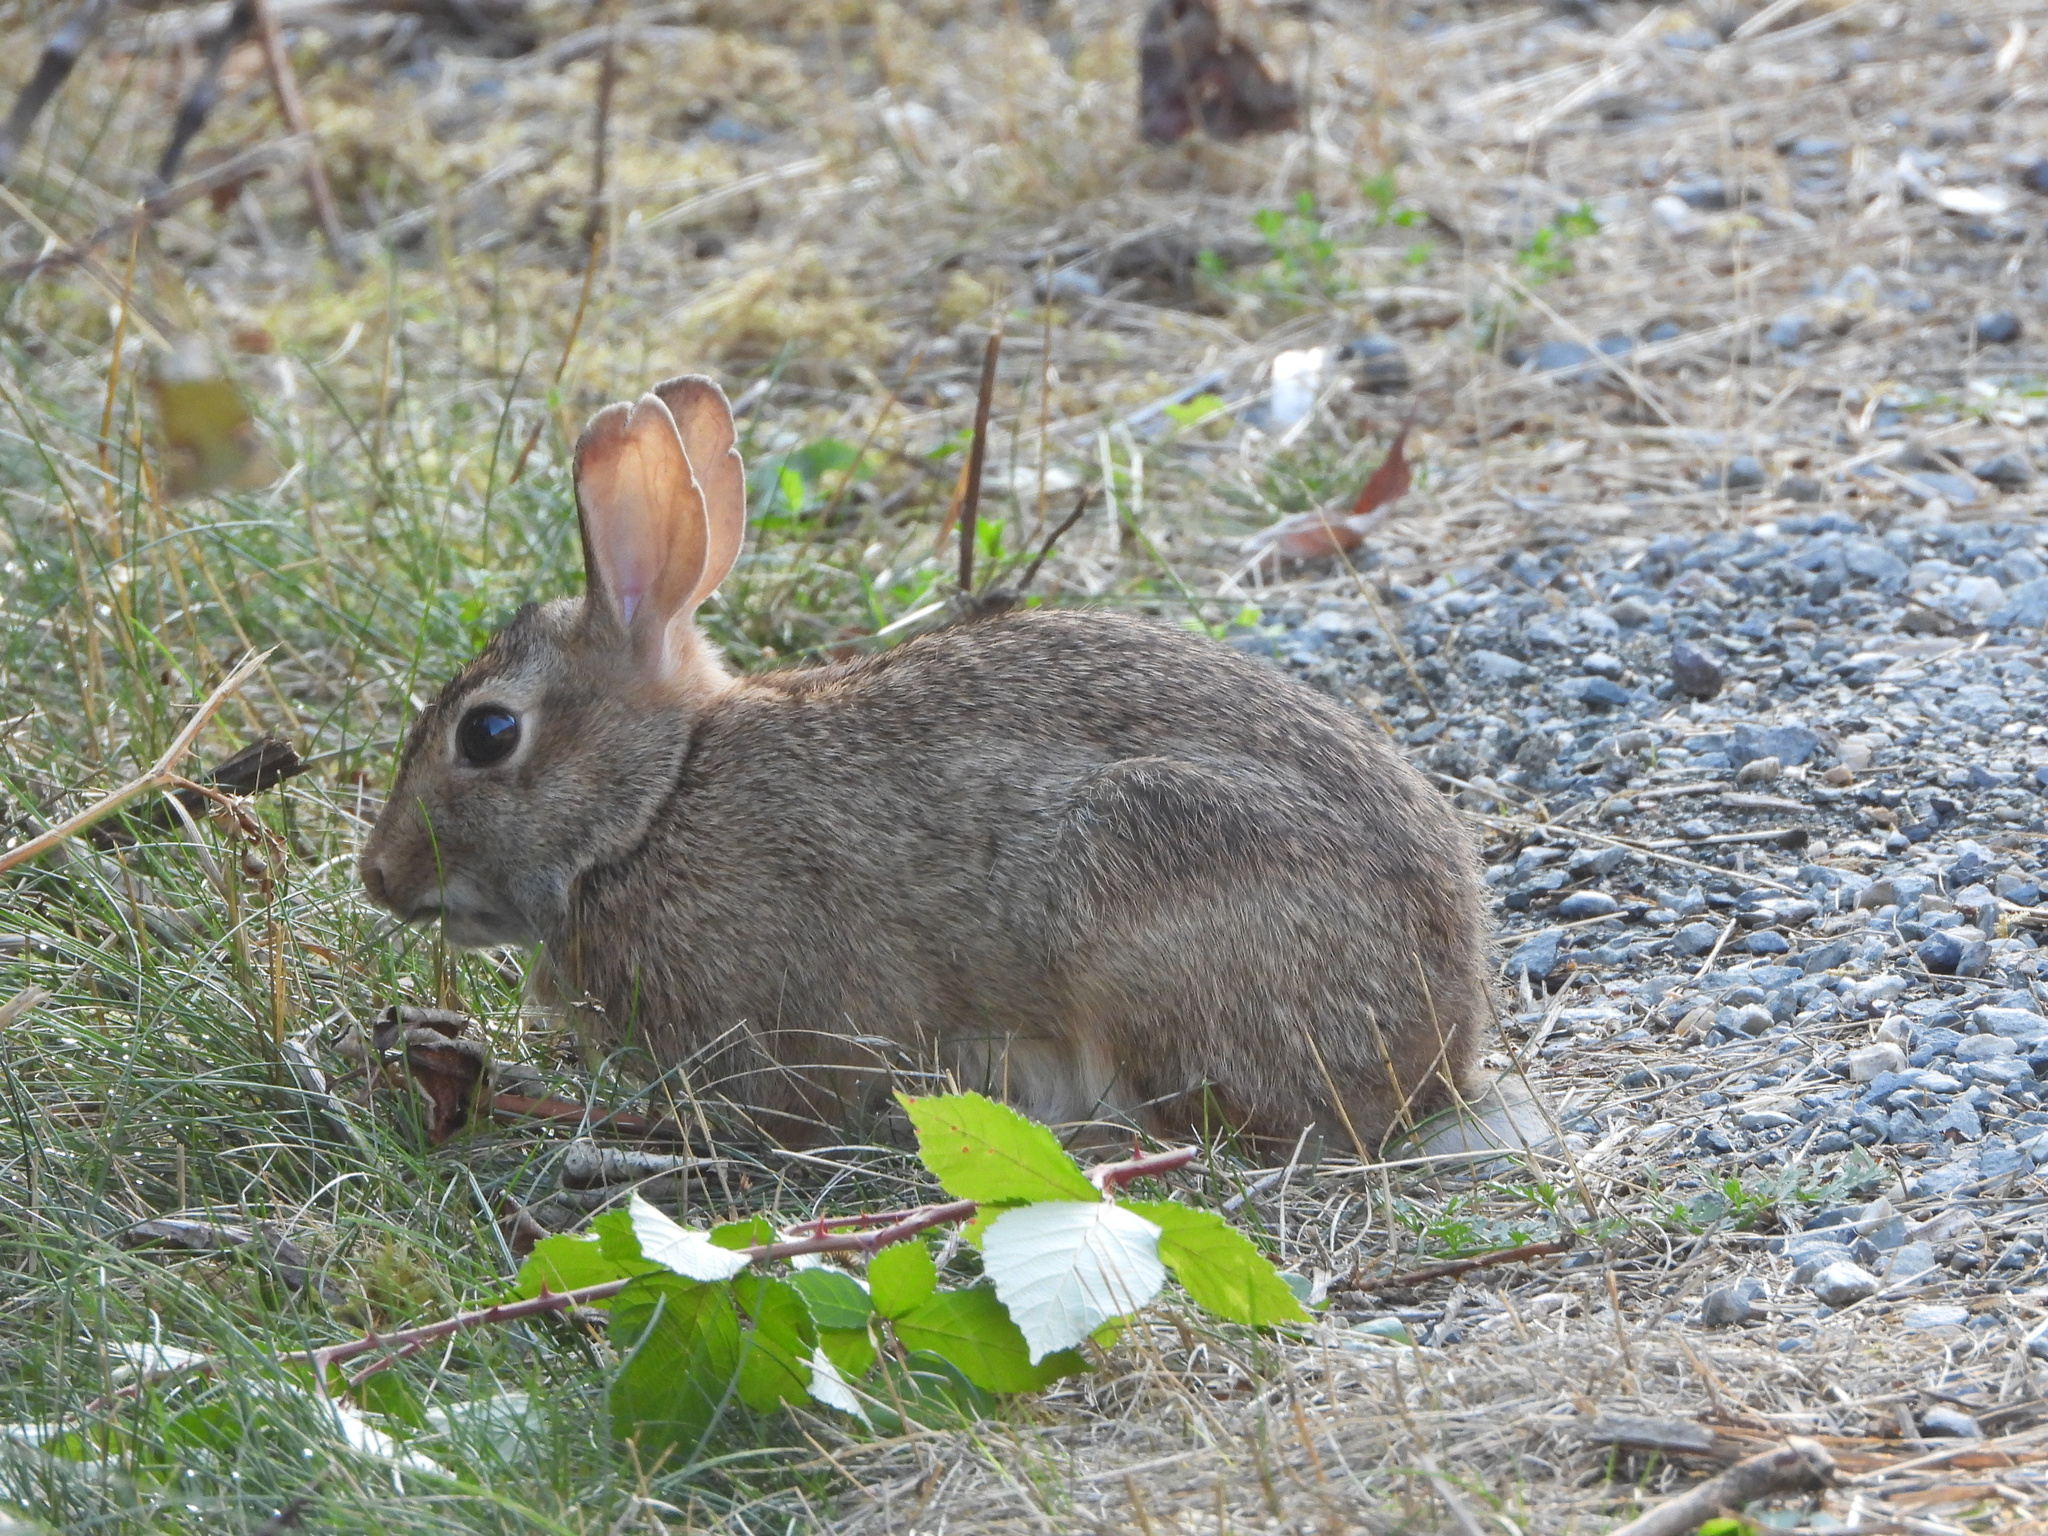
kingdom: Animalia
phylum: Chordata
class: Mammalia
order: Lagomorpha
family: Leporidae
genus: Sylvilagus
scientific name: Sylvilagus floridanus
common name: Eastern cottontail
